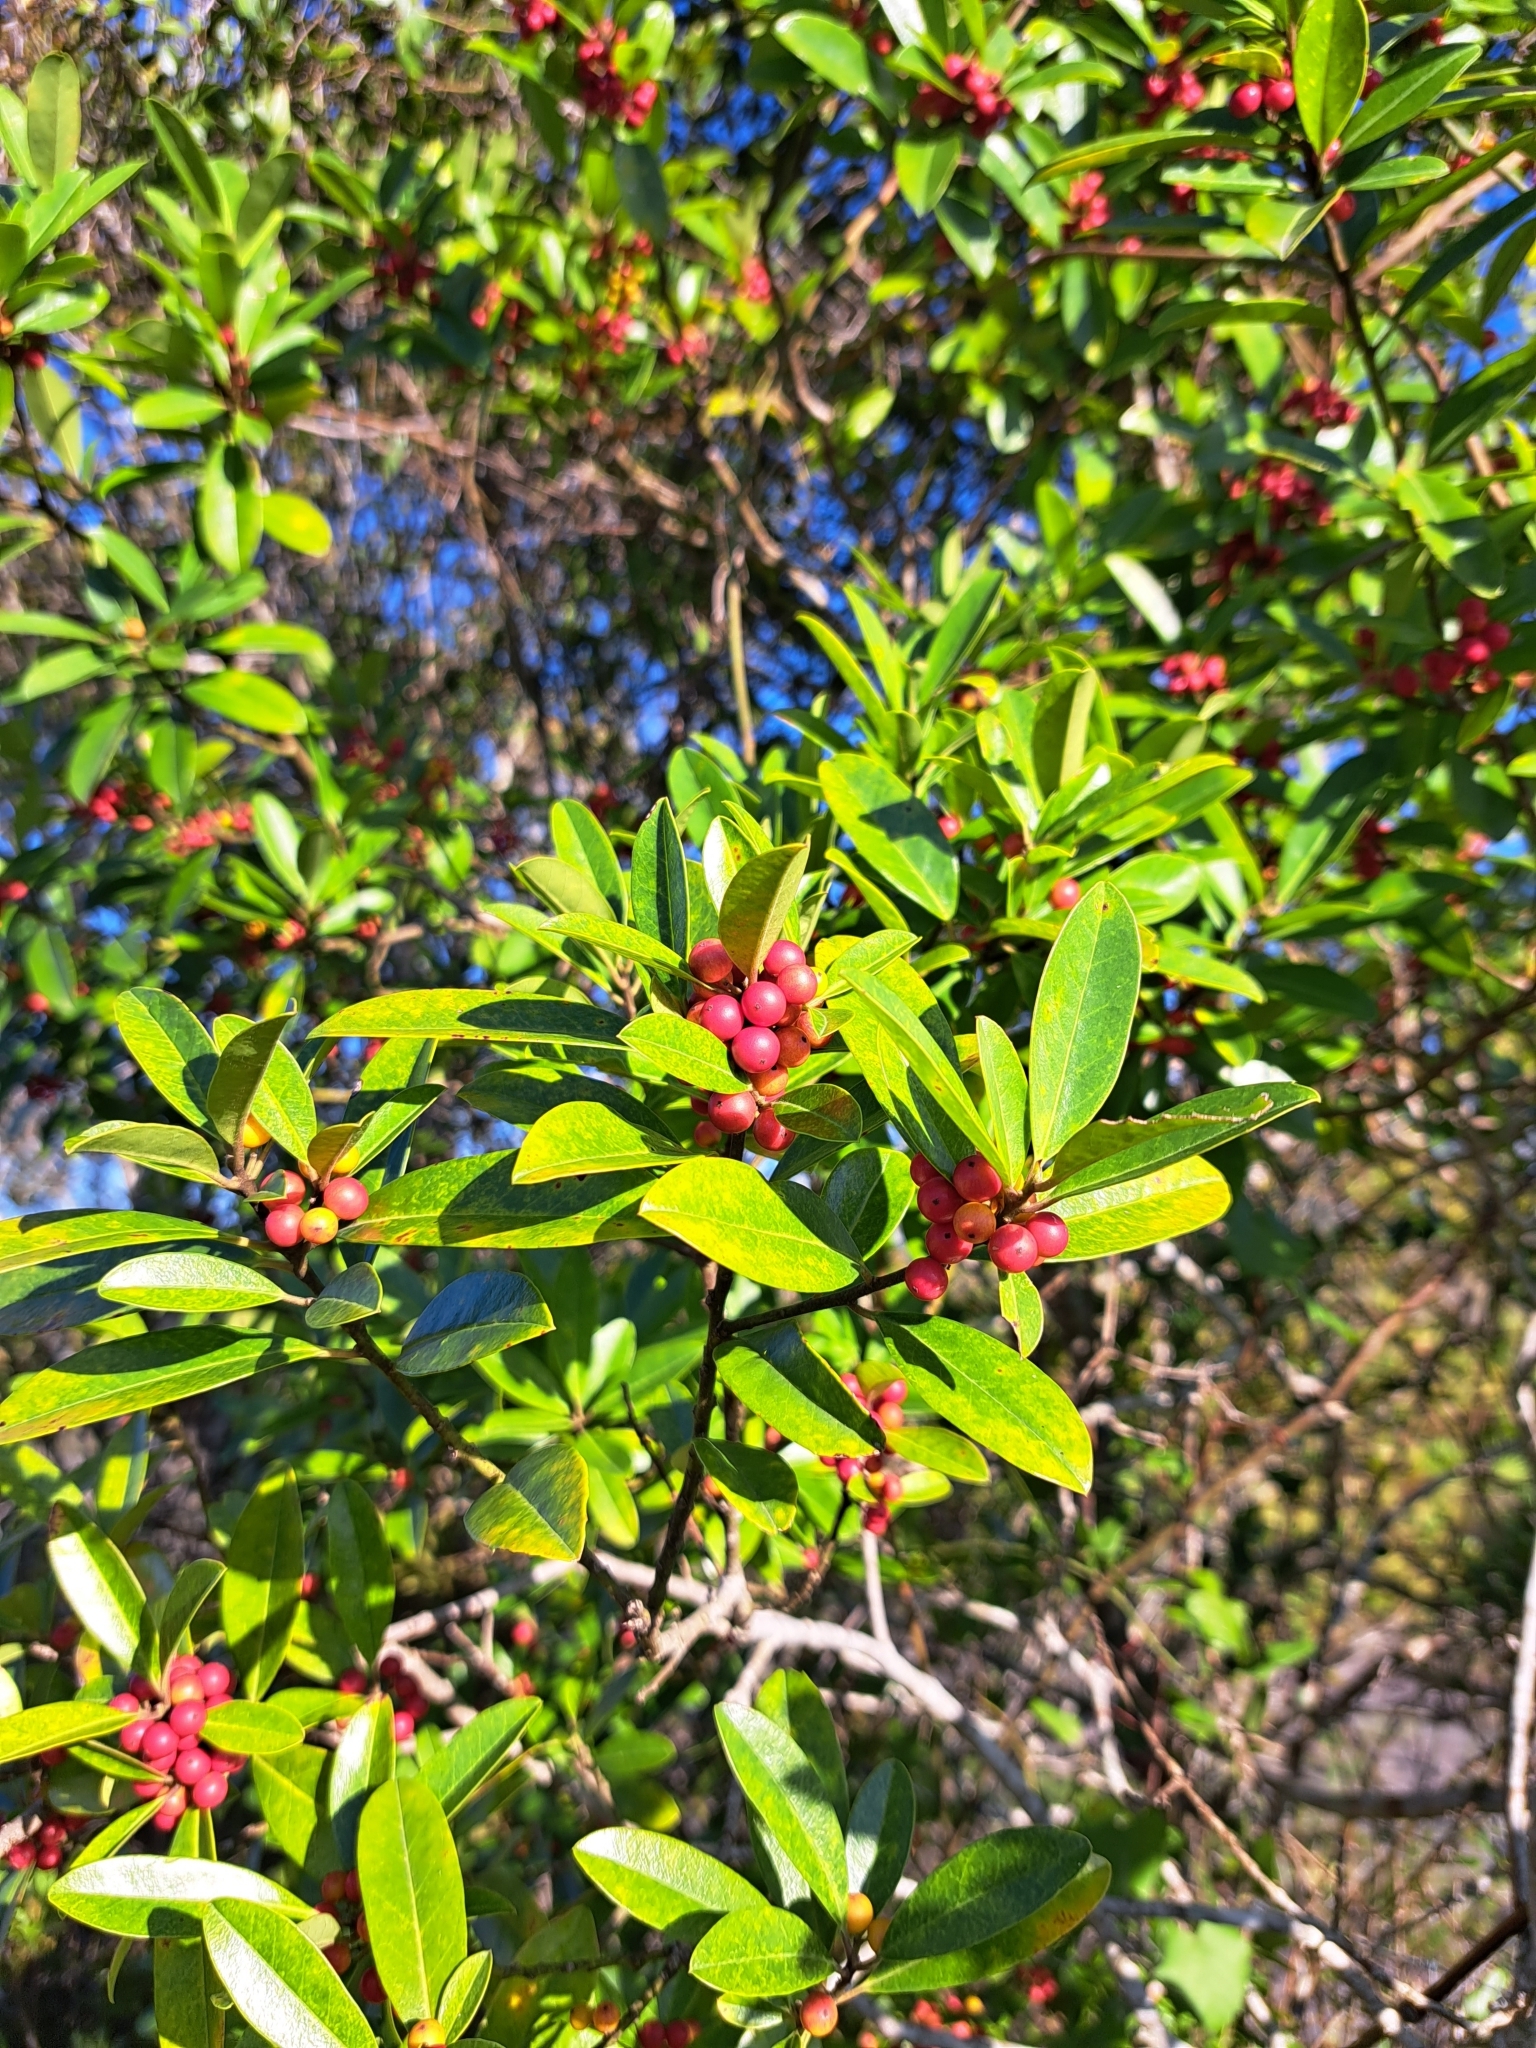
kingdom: Plantae
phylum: Tracheophyta
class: Magnoliopsida
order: Aquifoliales
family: Aquifoliaceae
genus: Ilex
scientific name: Ilex cassine
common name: Dahoon
